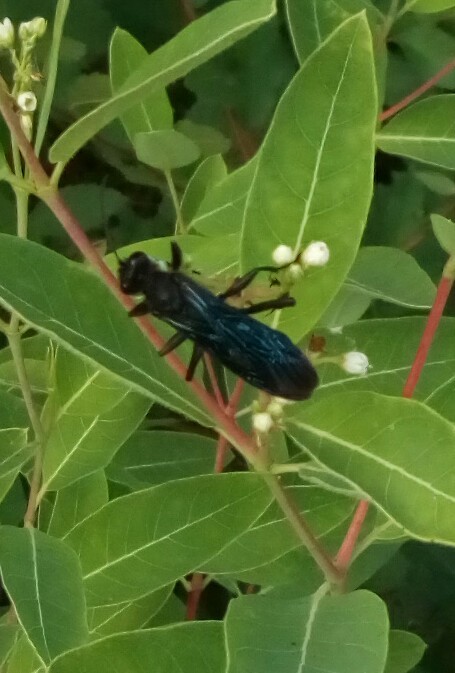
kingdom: Animalia
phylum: Arthropoda
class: Insecta
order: Hymenoptera
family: Sphecidae
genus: Sphex
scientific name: Sphex pensylvanicus
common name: Great black digger wasp
